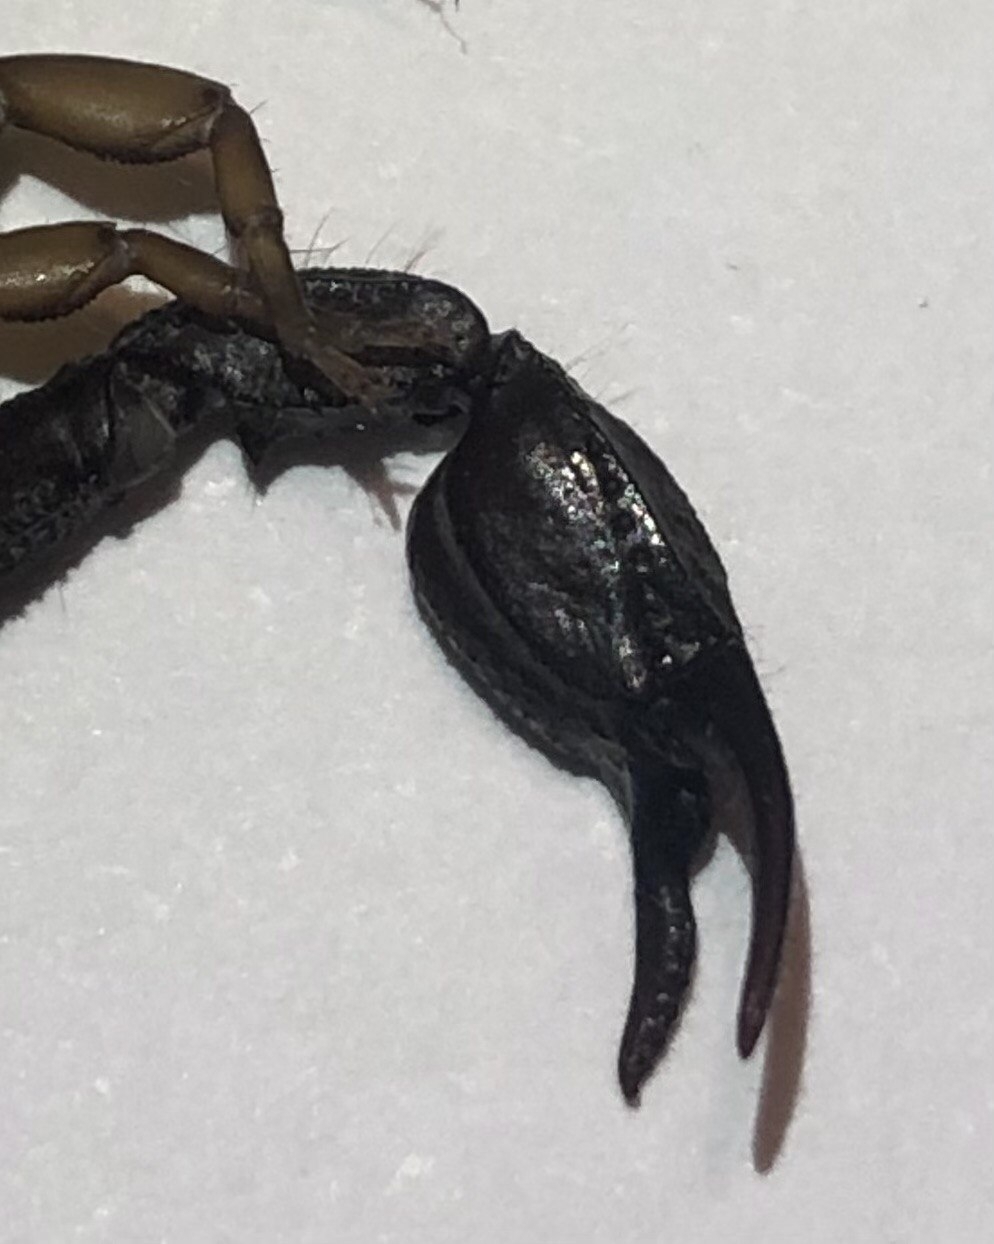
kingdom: Animalia
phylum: Arthropoda
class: Arachnida
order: Scorpiones
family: Euscorpiidae
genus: Euscorpius
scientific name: Euscorpius italicus
